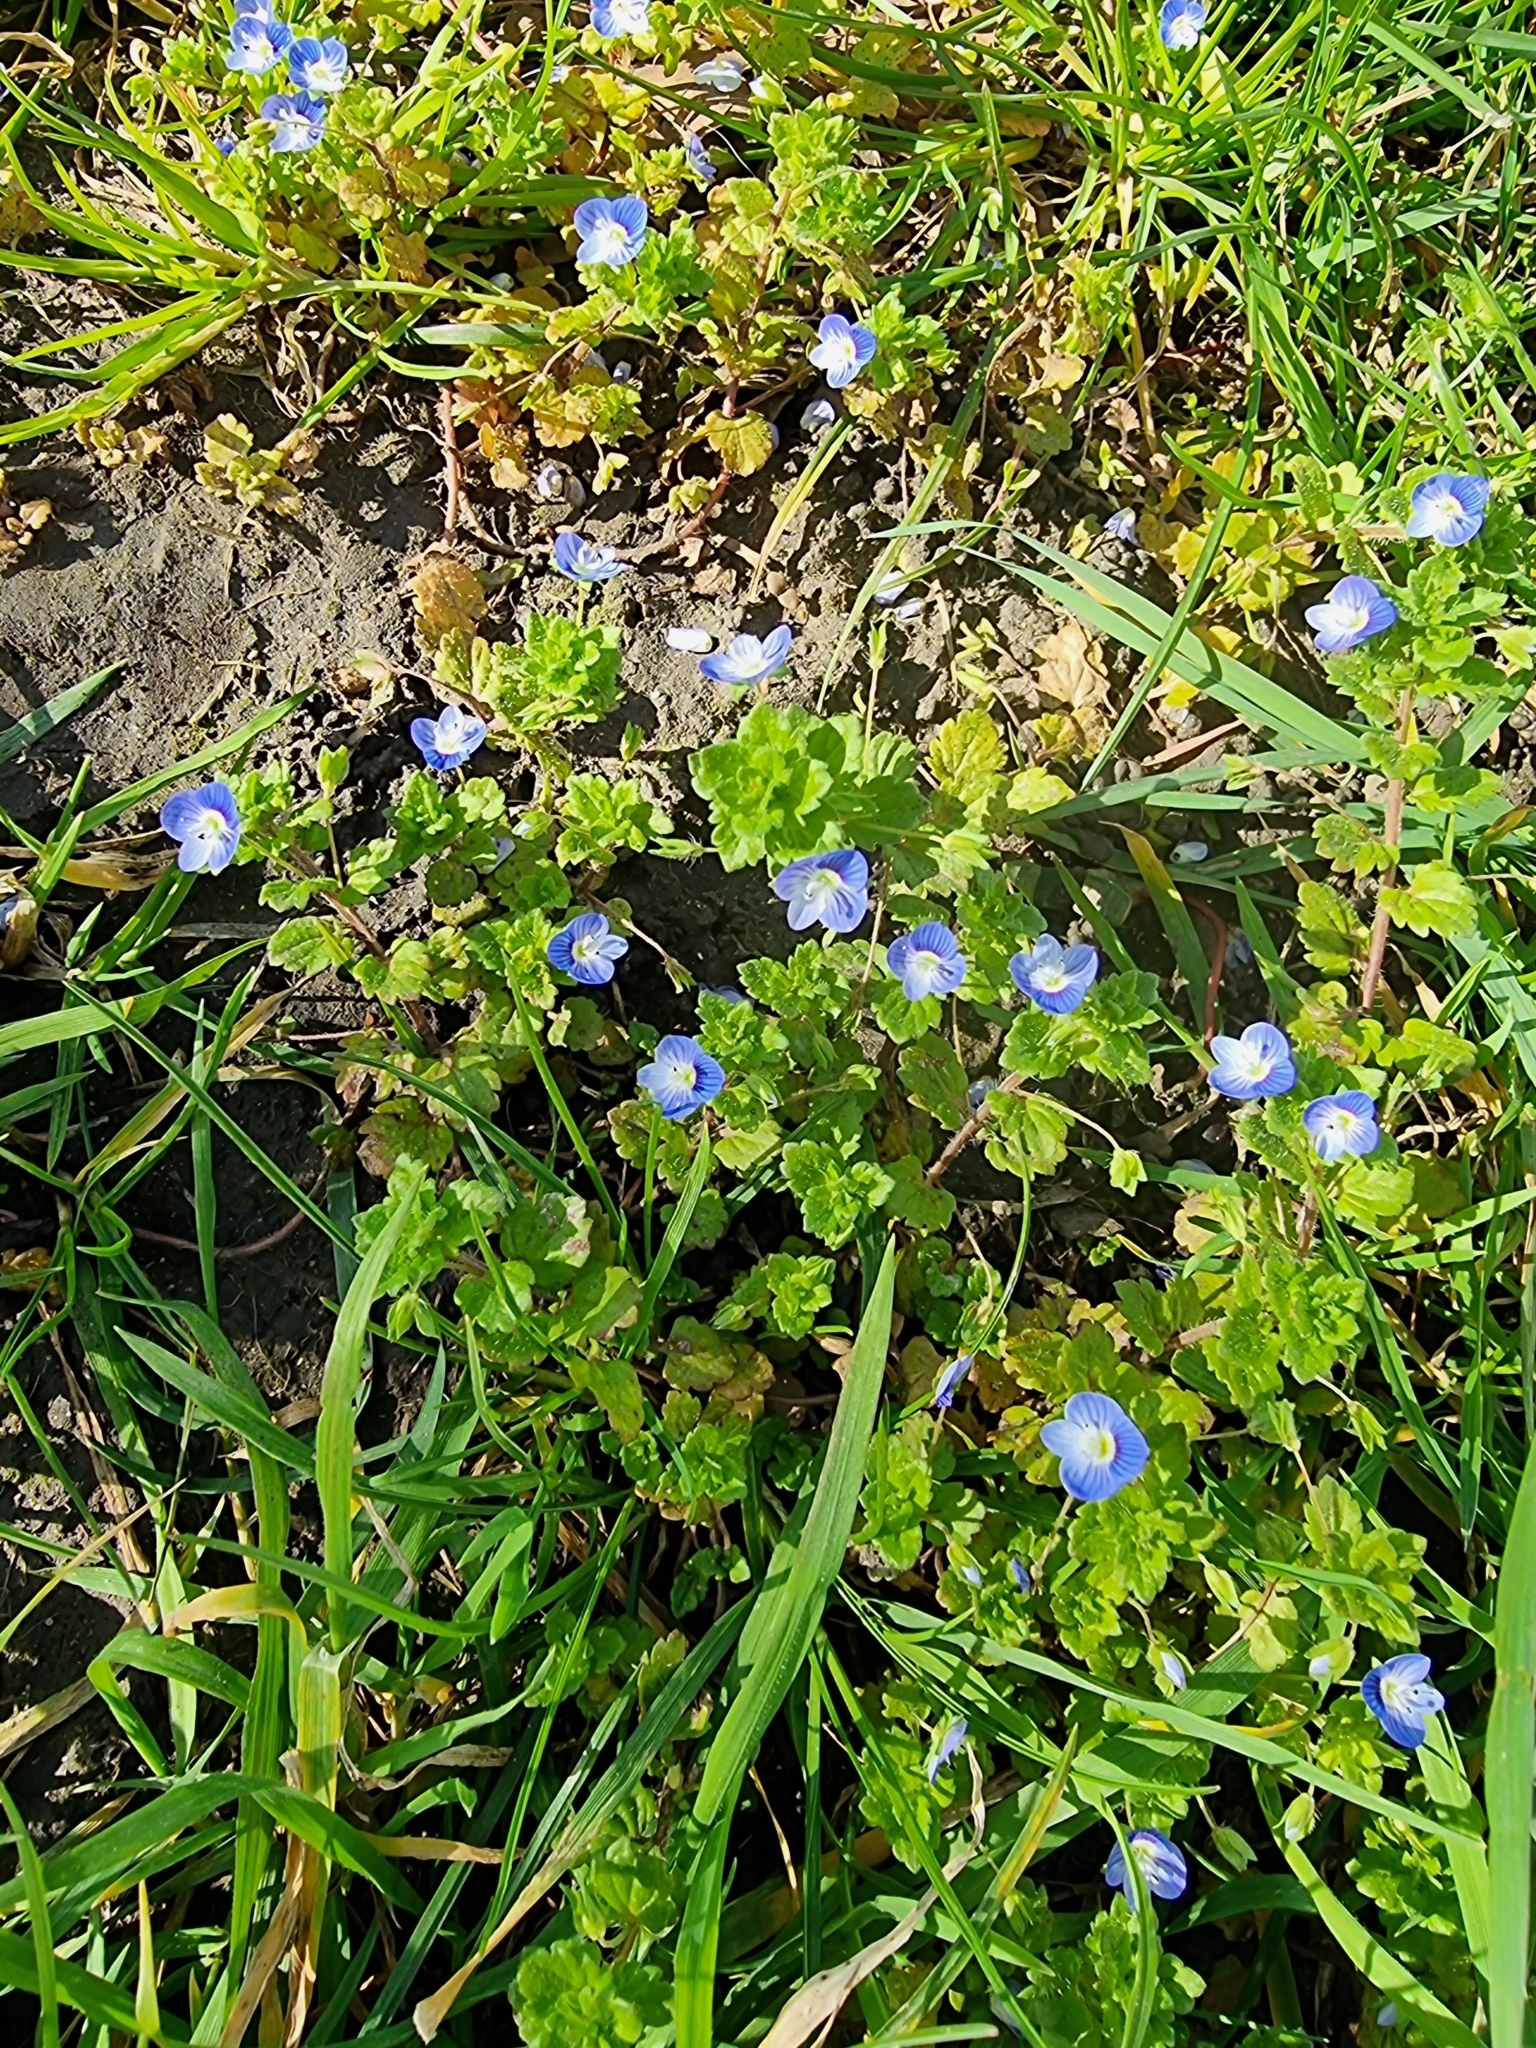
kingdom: Plantae
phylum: Tracheophyta
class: Magnoliopsida
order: Lamiales
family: Plantaginaceae
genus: Veronica
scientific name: Veronica persica
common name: Common field-speedwell
